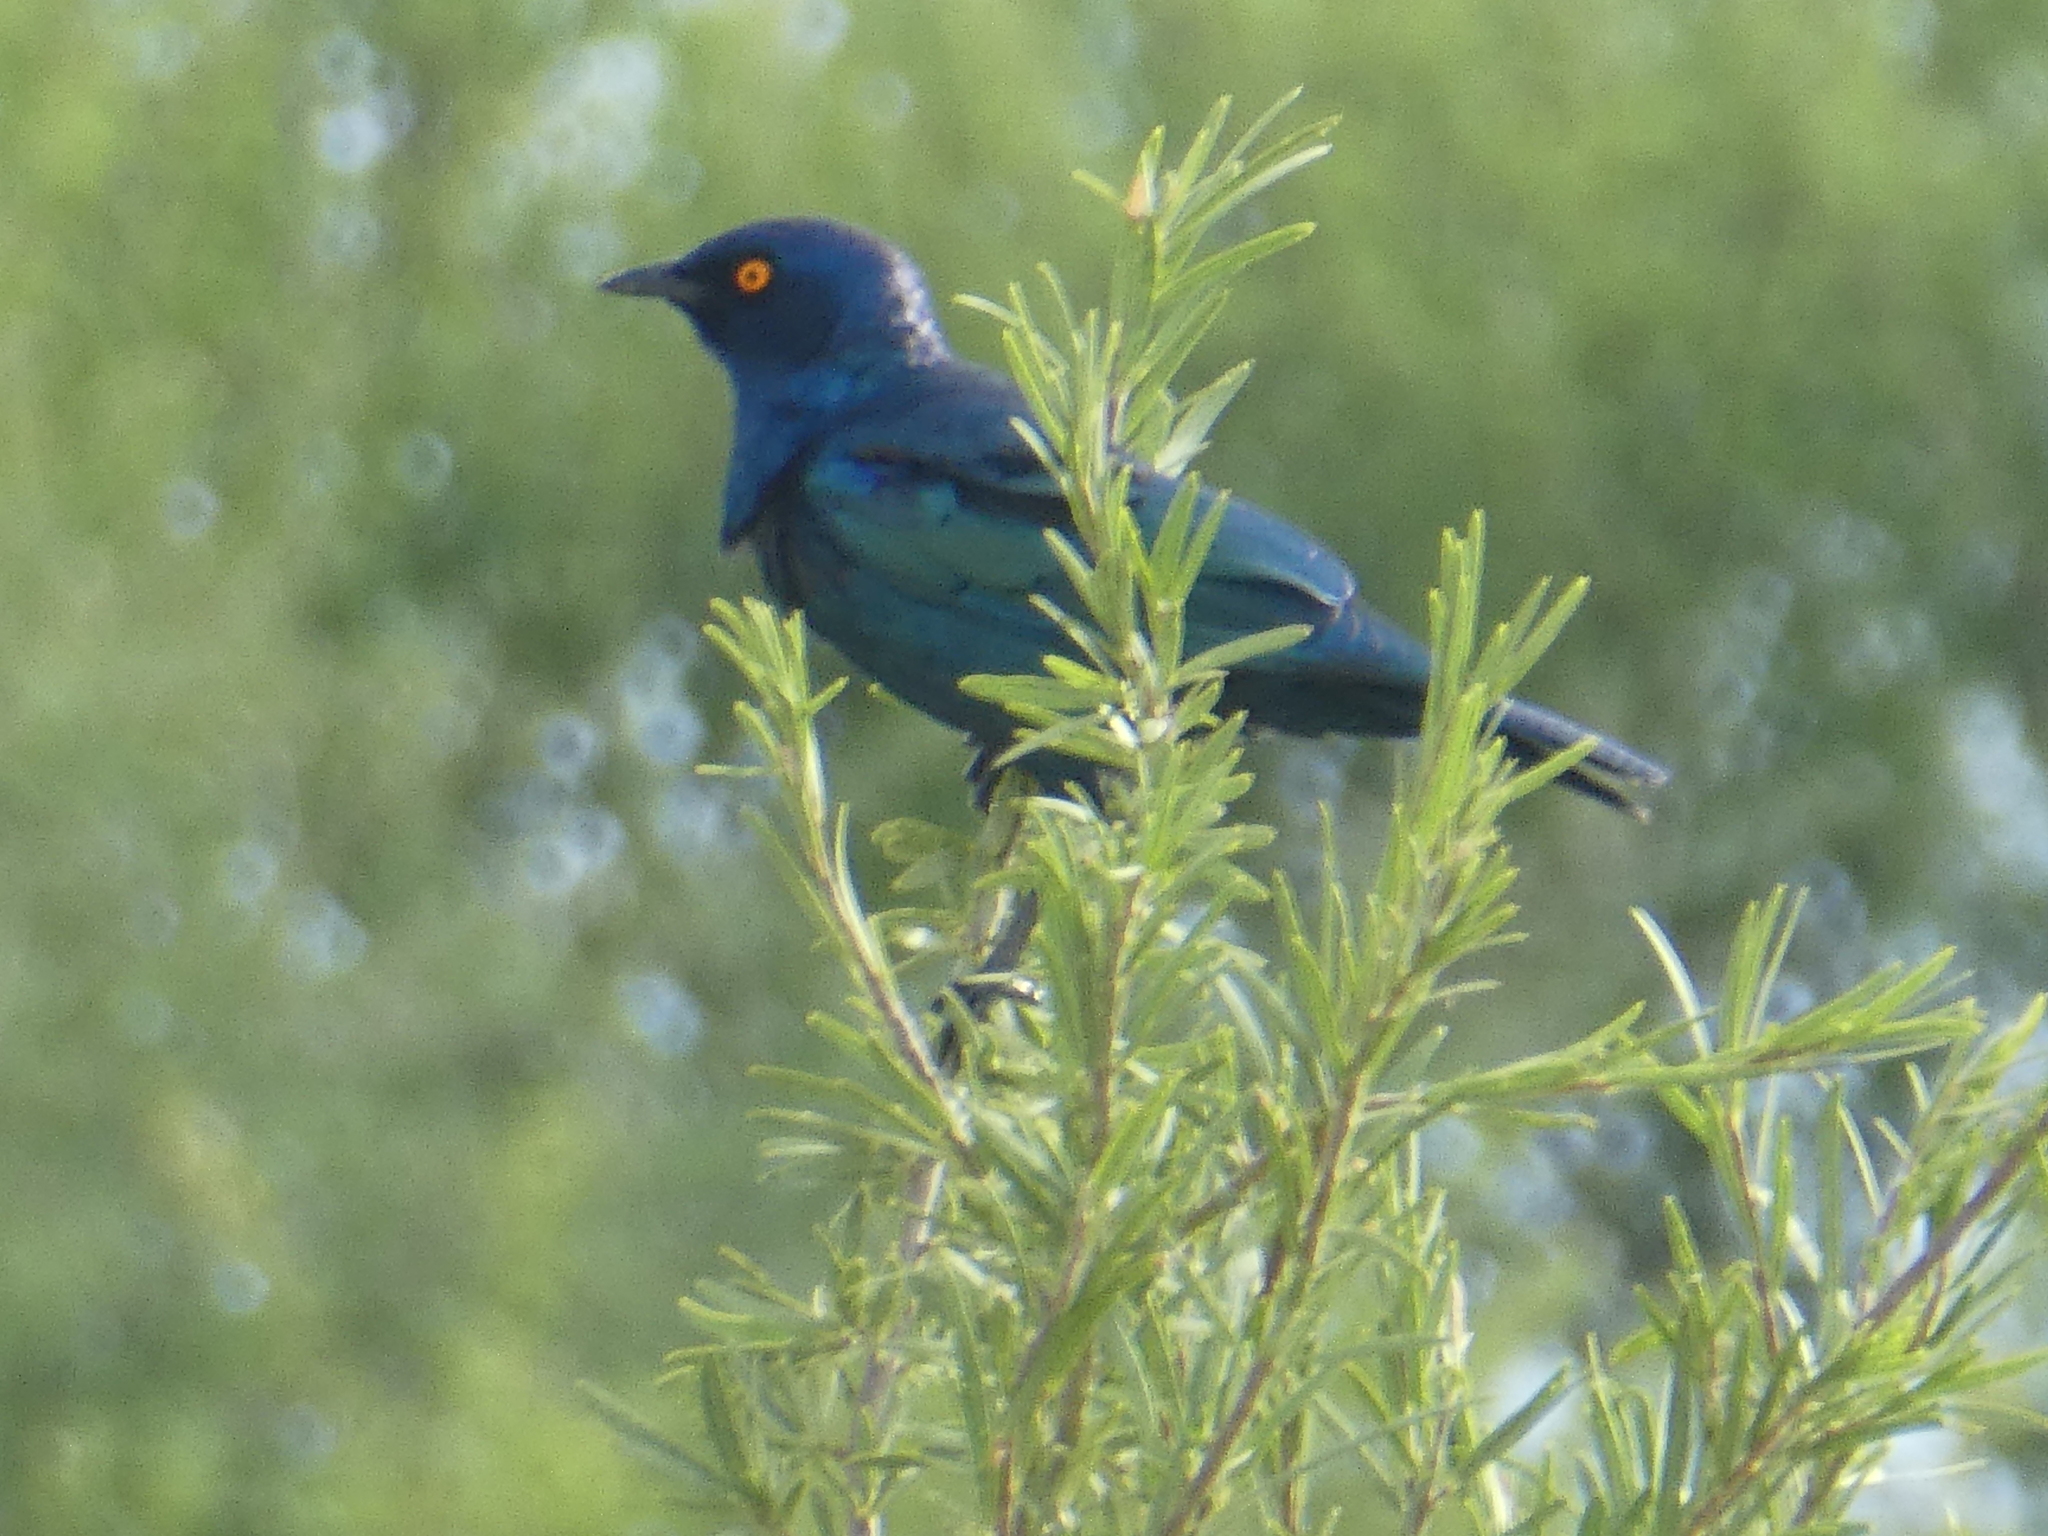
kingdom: Animalia
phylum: Chordata
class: Aves
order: Passeriformes
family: Sturnidae
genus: Lamprotornis
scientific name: Lamprotornis nitens
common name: Cape starling
